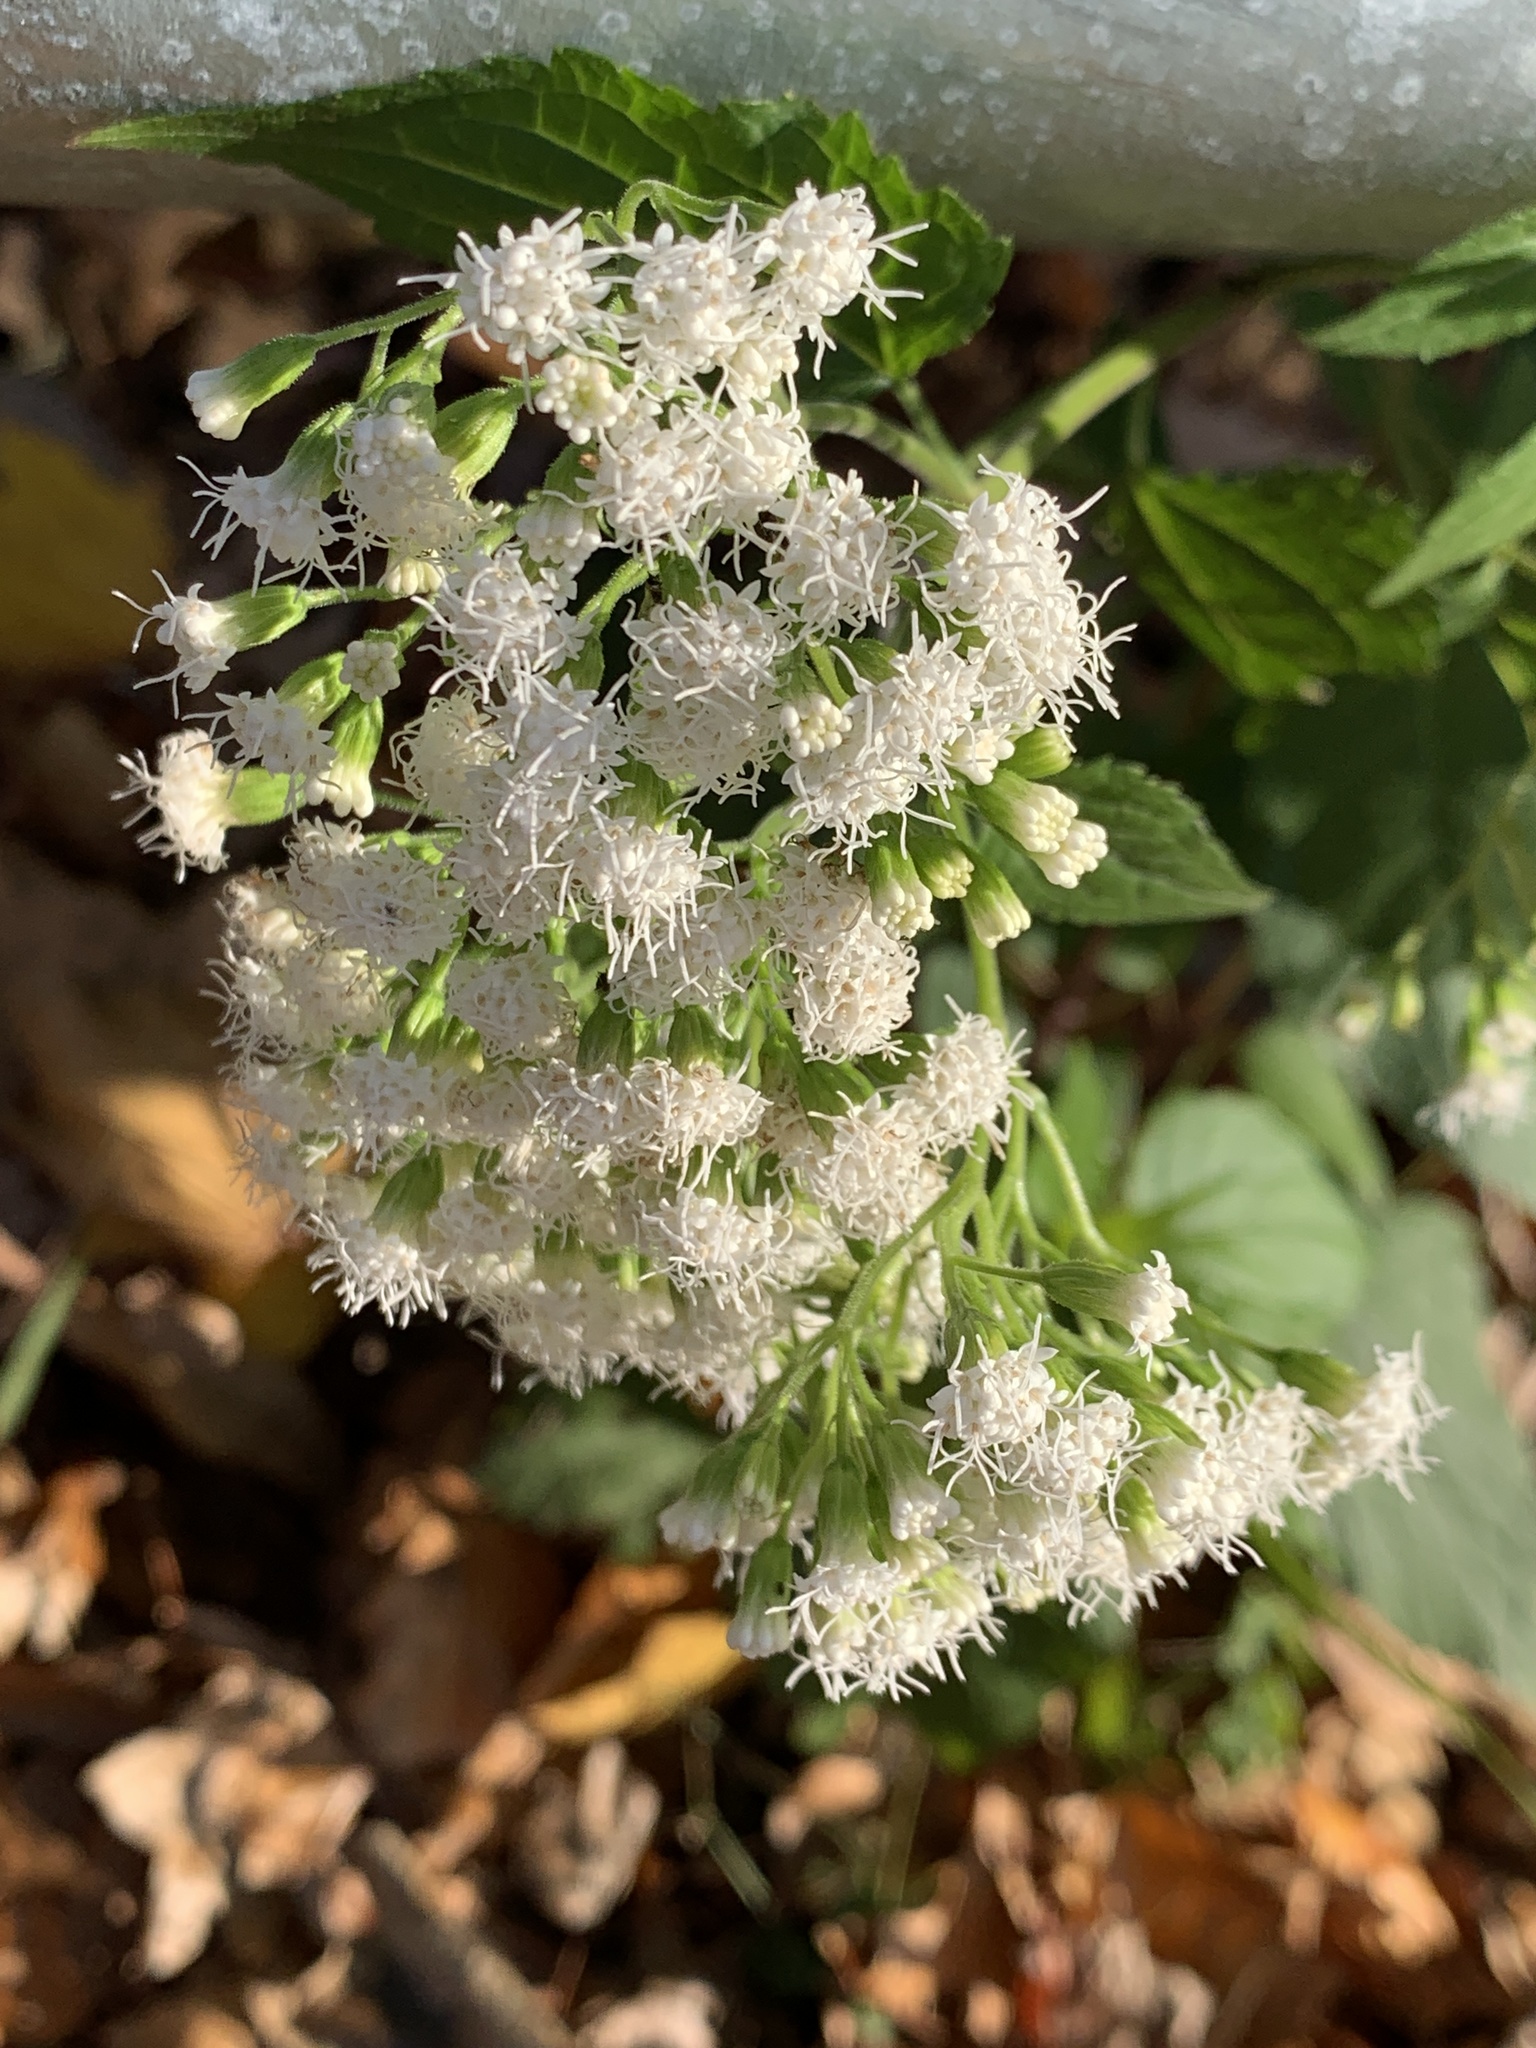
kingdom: Plantae
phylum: Tracheophyta
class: Magnoliopsida
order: Asterales
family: Asteraceae
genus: Ageratina
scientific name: Ageratina altissima
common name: White snakeroot
